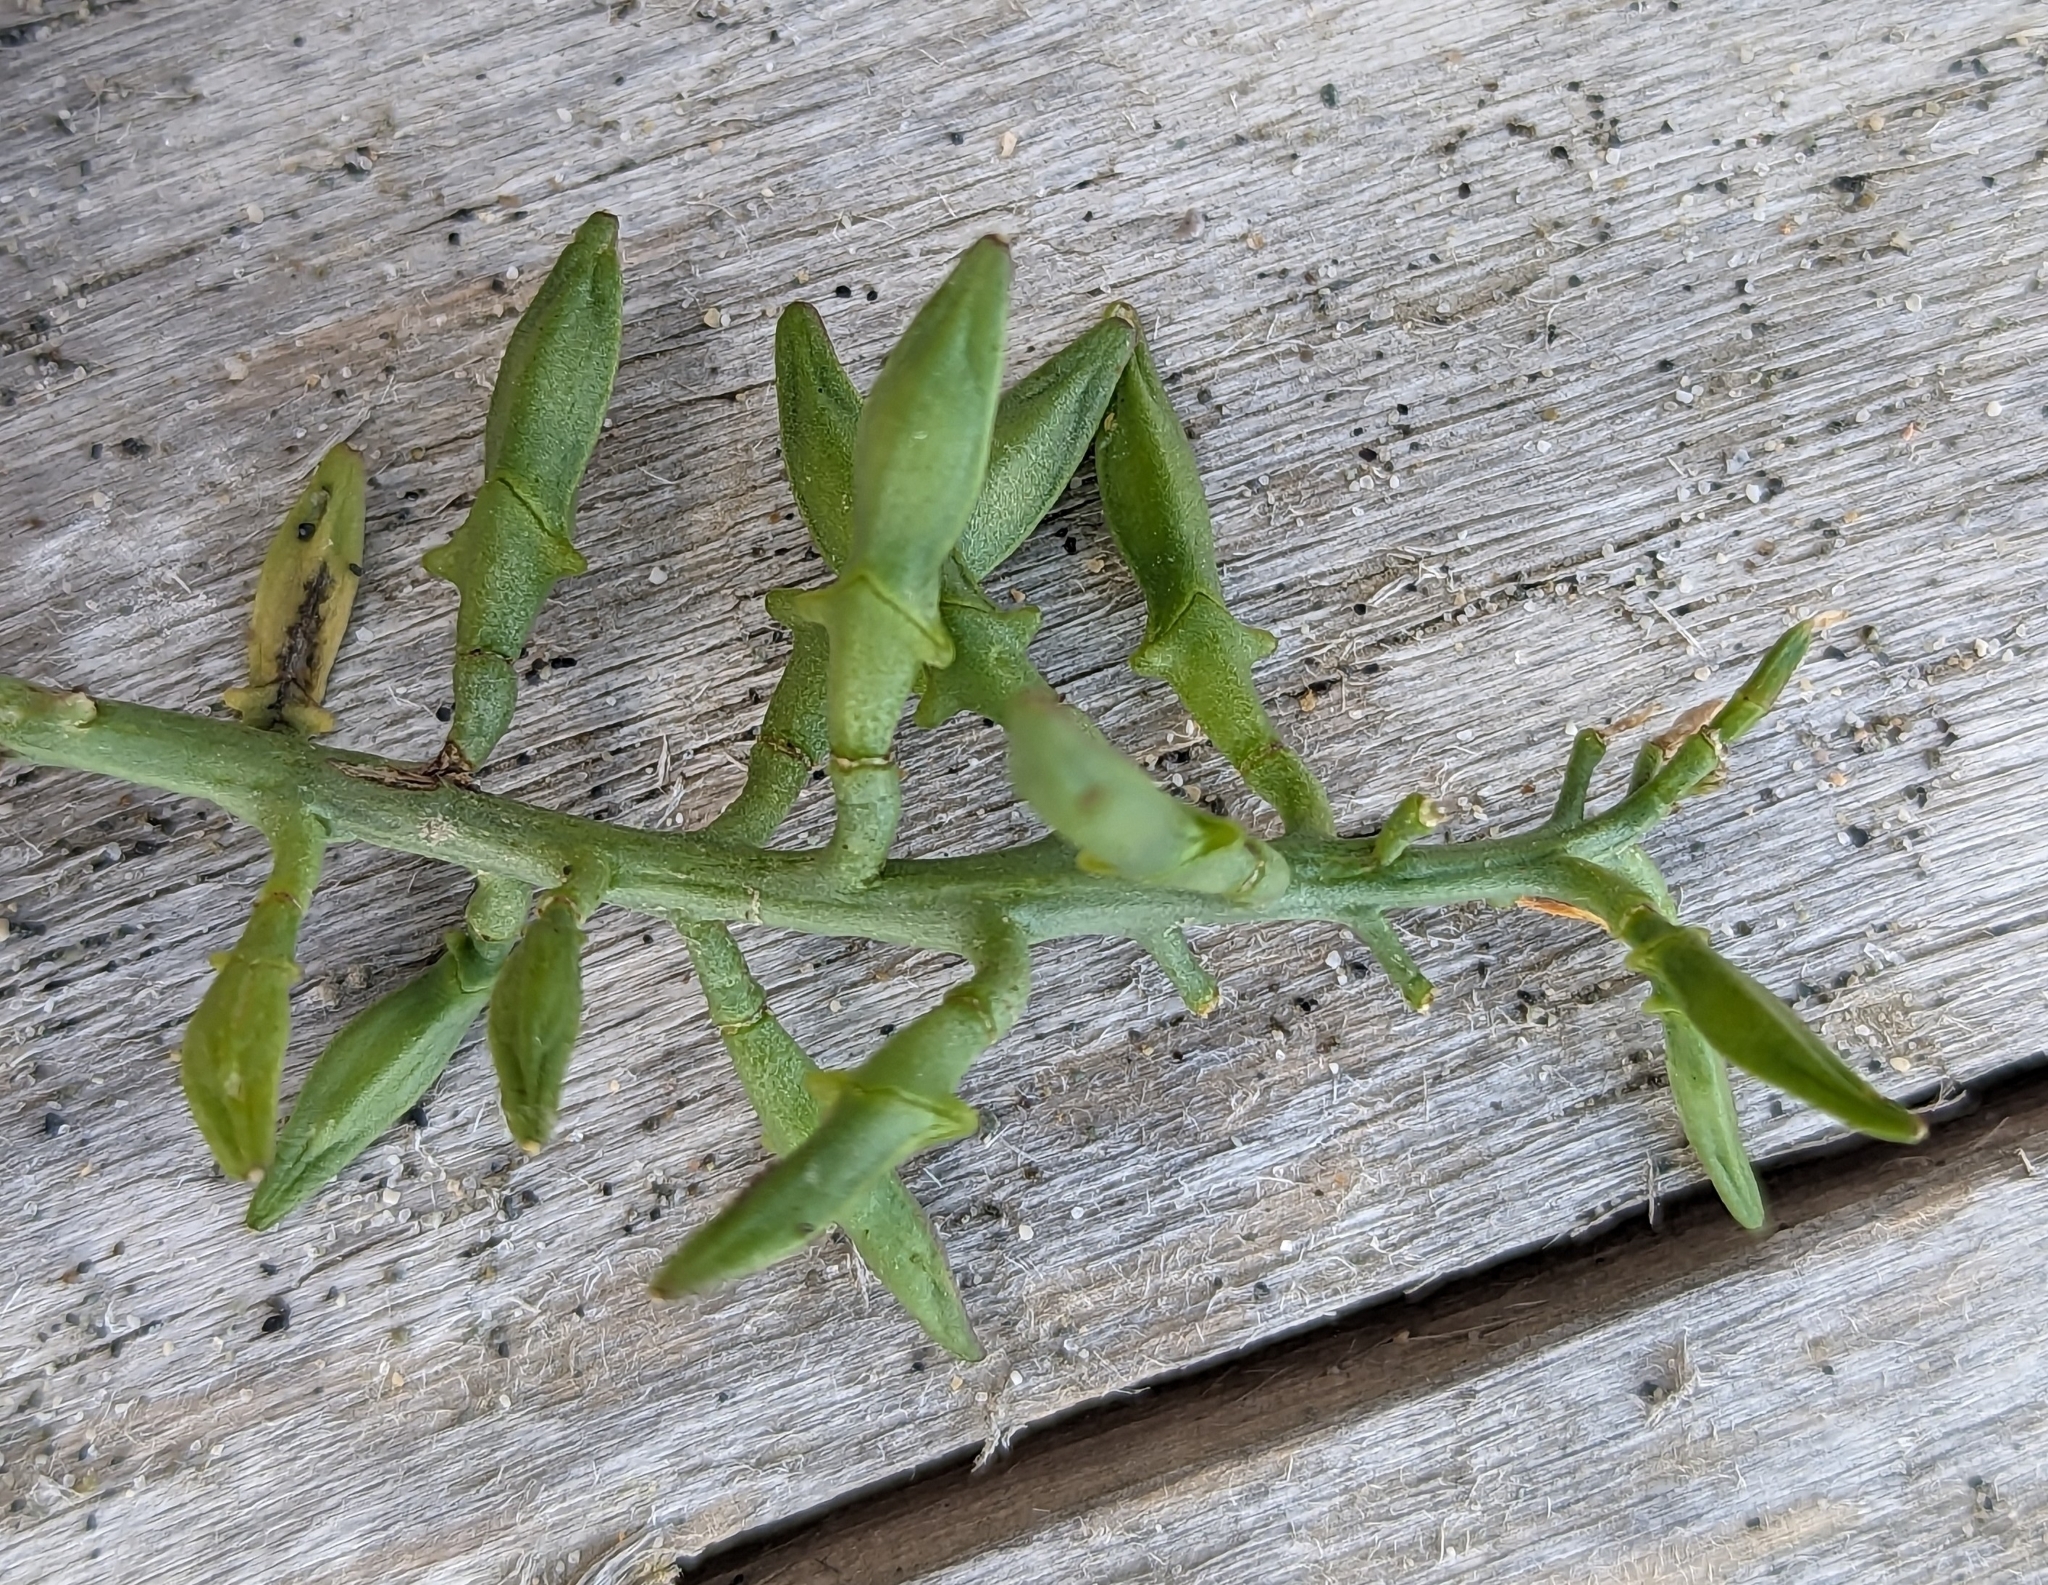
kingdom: Plantae
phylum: Tracheophyta
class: Magnoliopsida
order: Brassicales
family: Brassicaceae
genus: Cakile
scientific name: Cakile maritima
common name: Sea rocket
